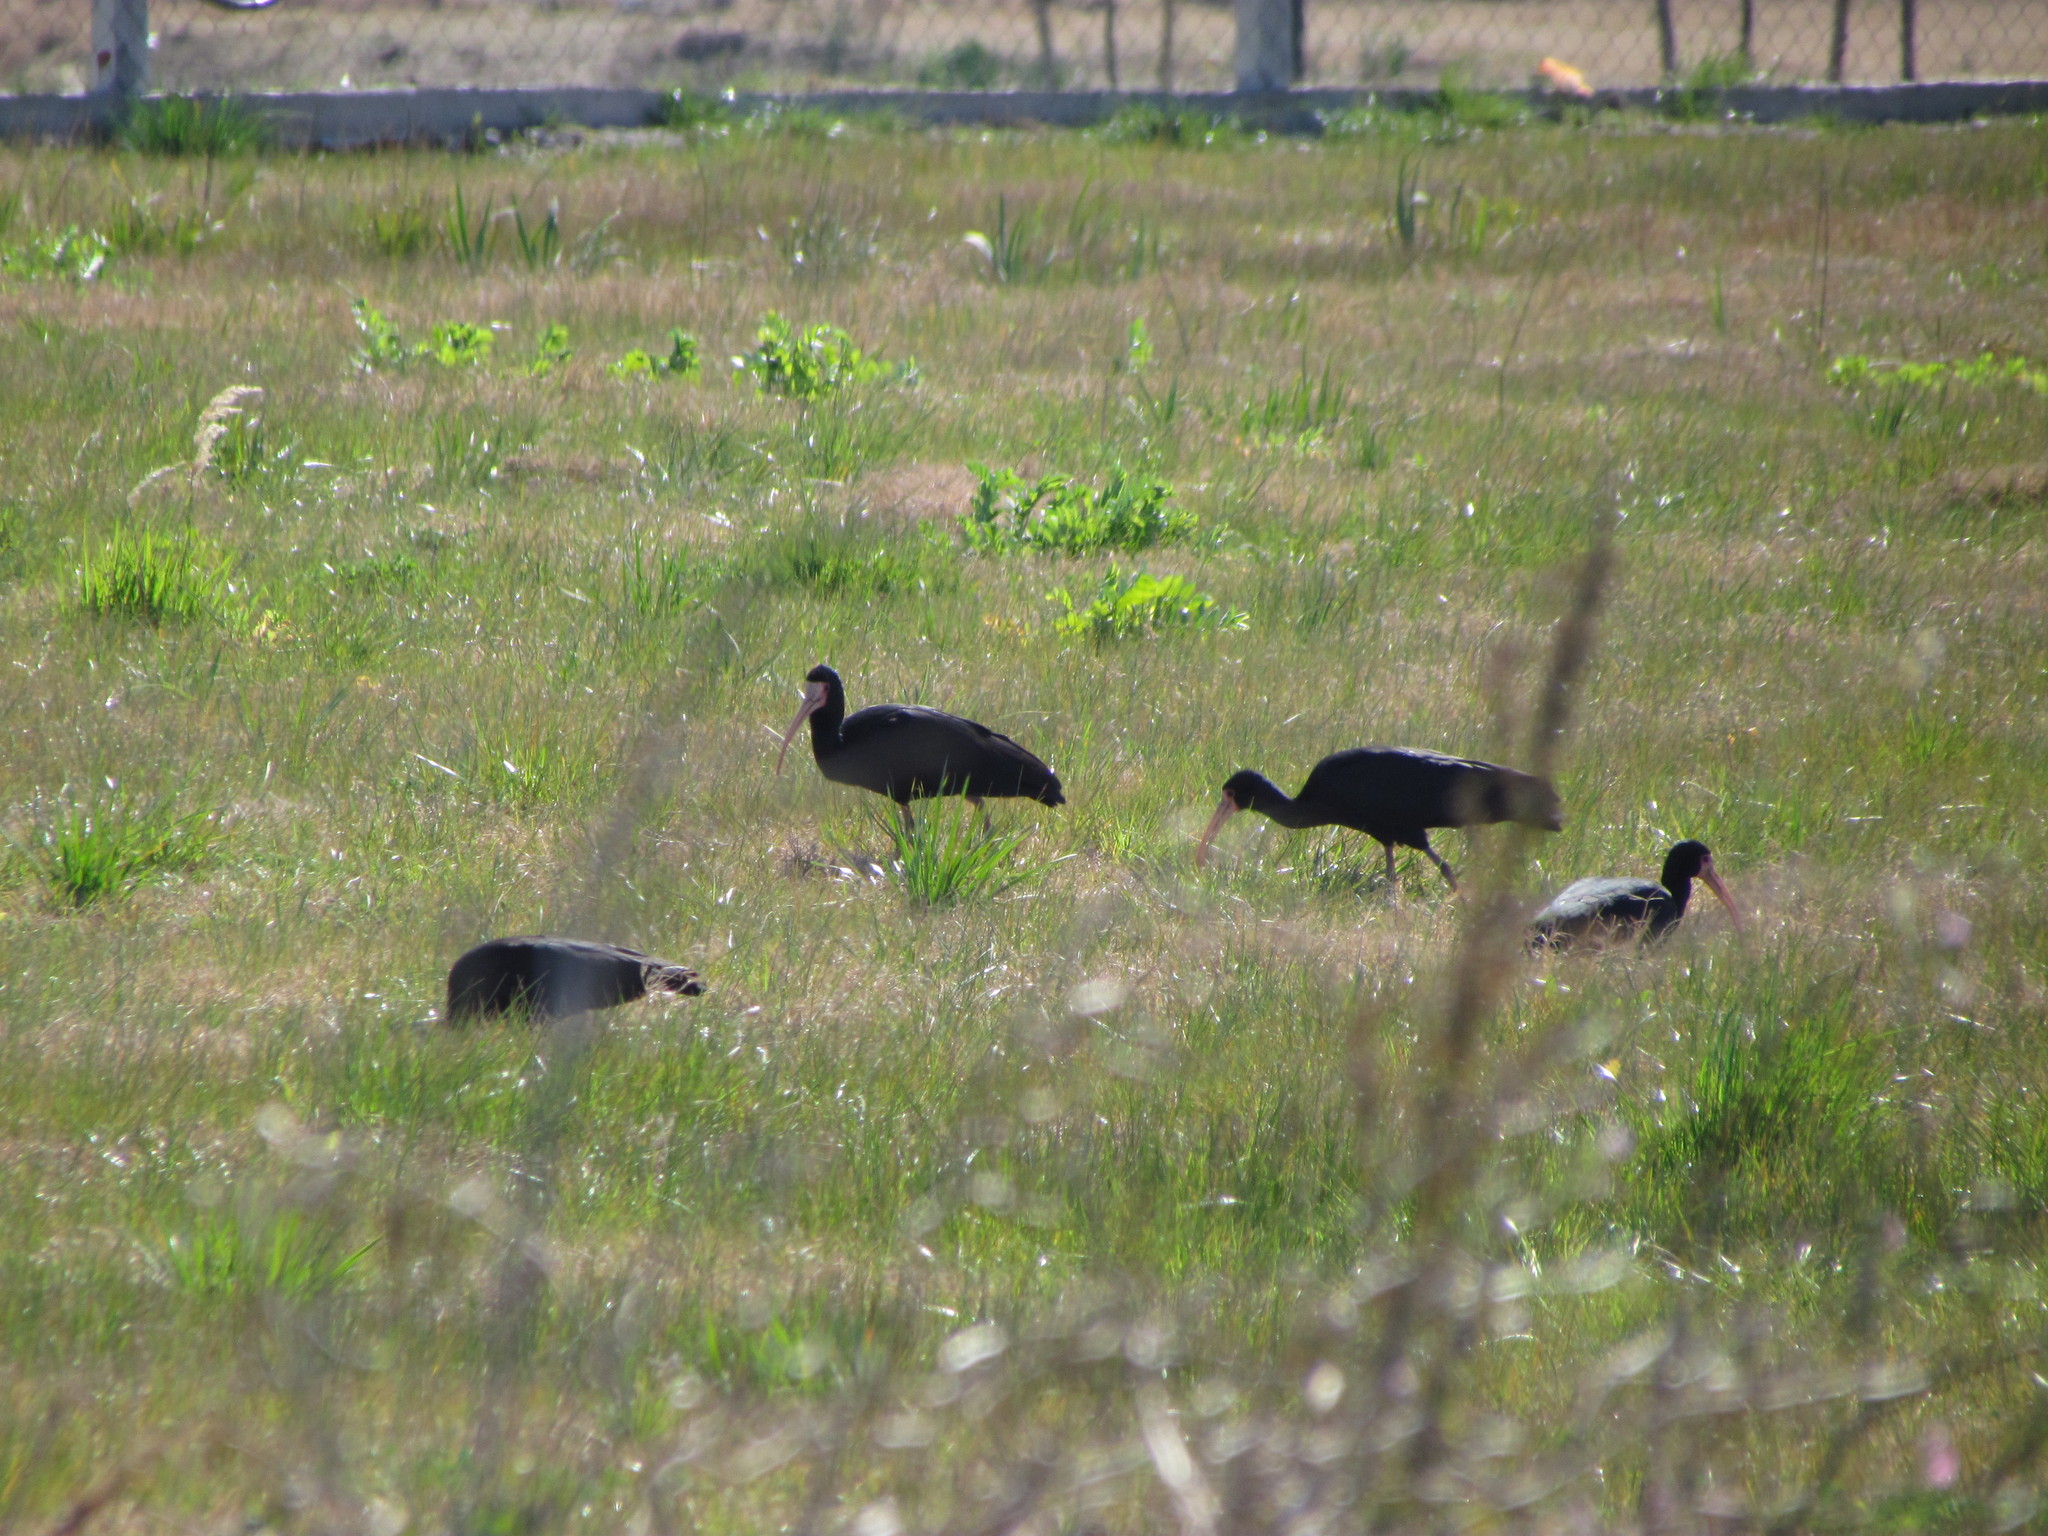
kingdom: Animalia
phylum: Chordata
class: Aves
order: Pelecaniformes
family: Threskiornithidae
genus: Phimosus
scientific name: Phimosus infuscatus
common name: Bare-faced ibis
